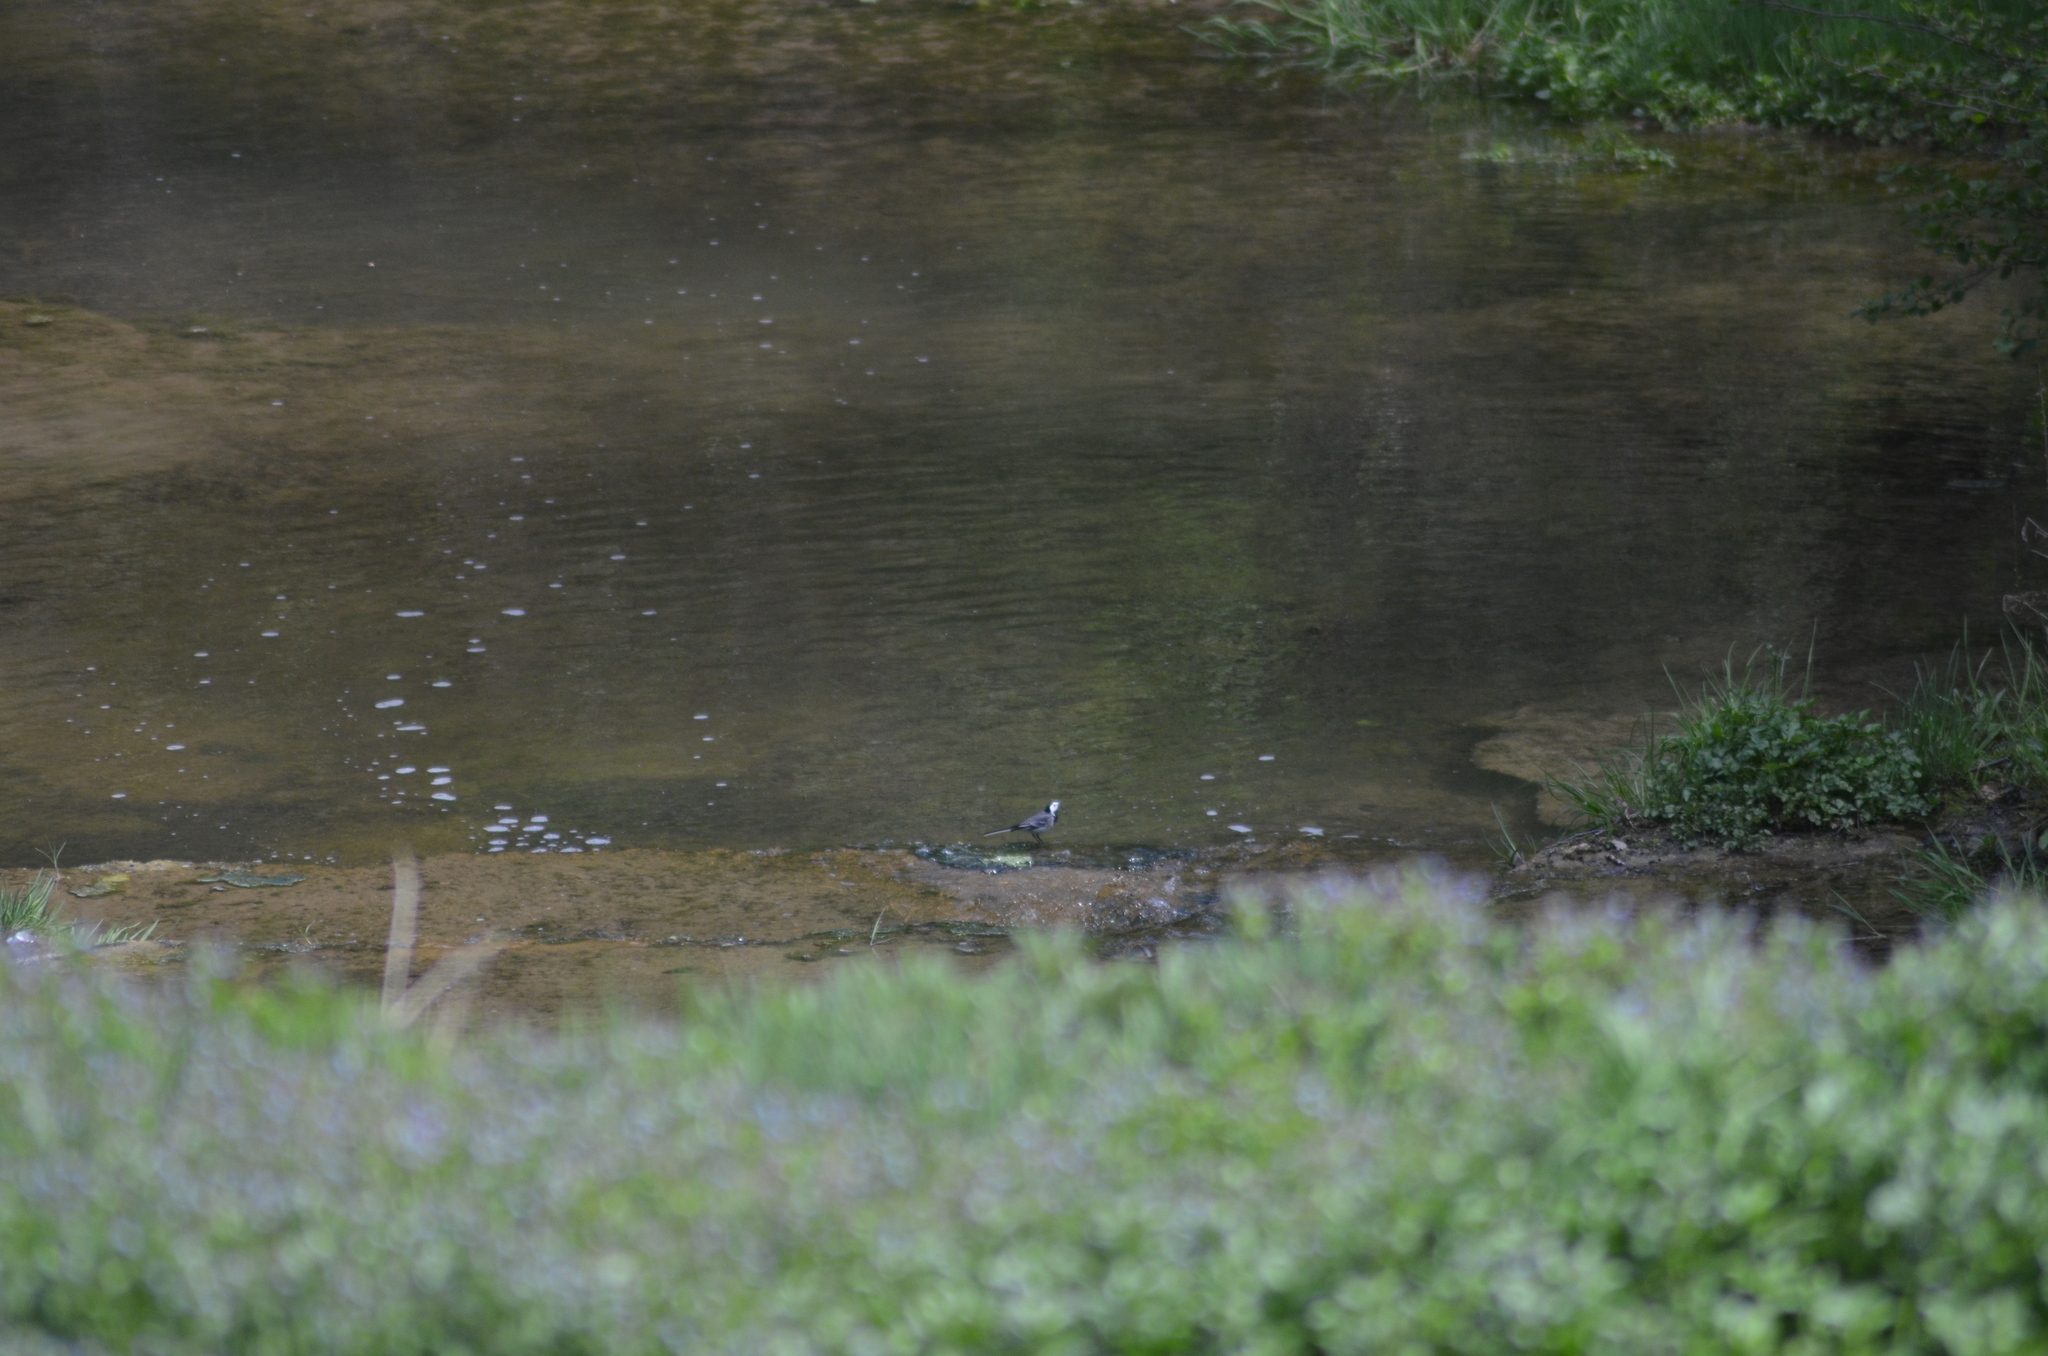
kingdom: Animalia
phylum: Chordata
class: Aves
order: Passeriformes
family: Motacillidae
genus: Motacilla
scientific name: Motacilla alba
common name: White wagtail
